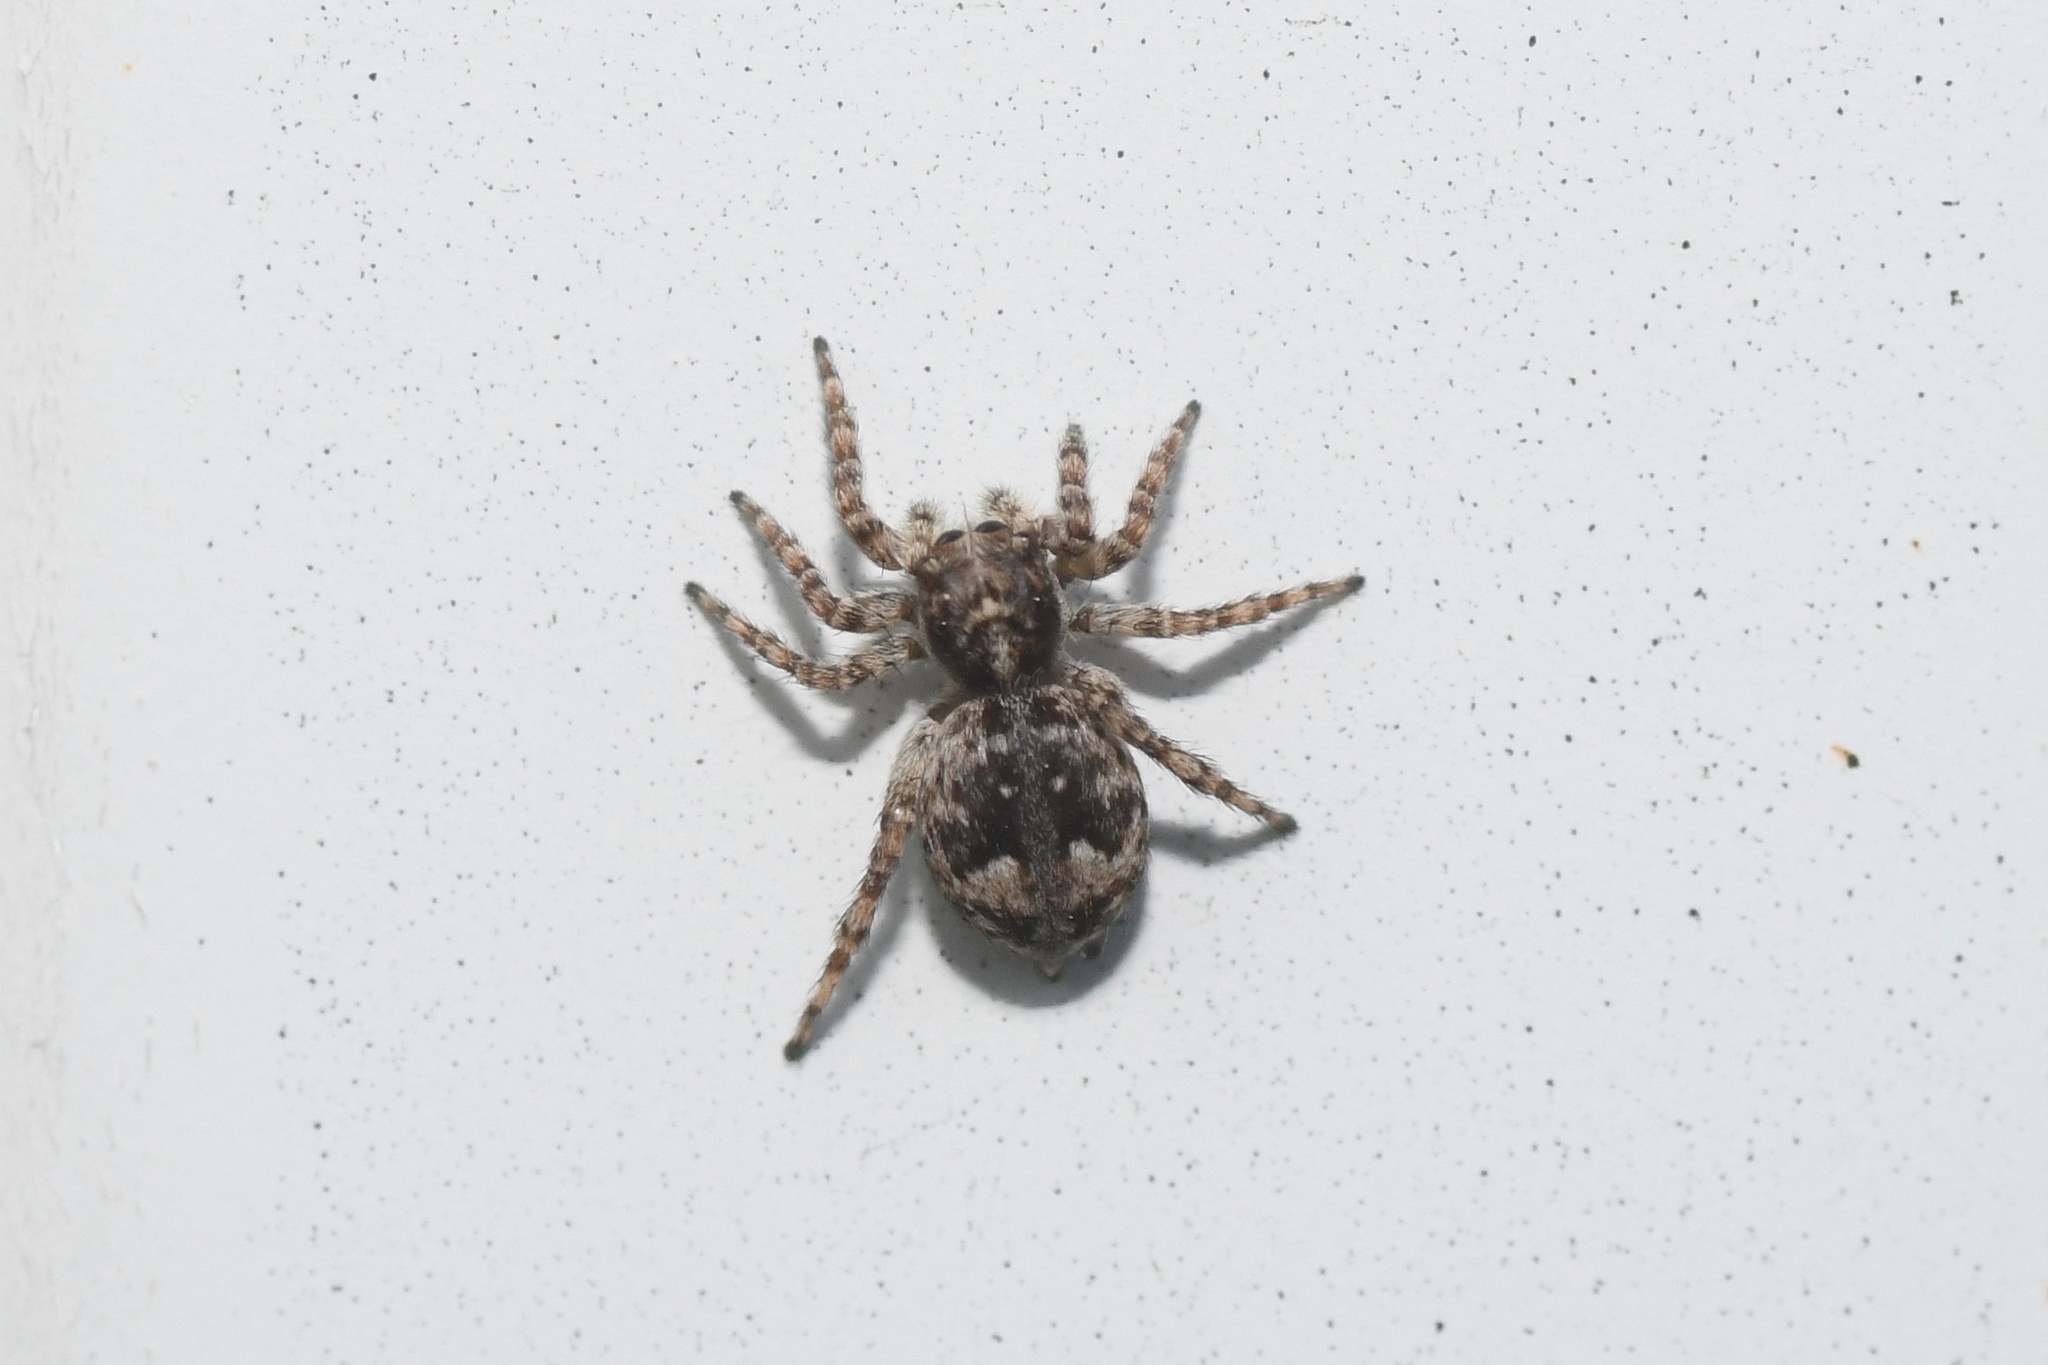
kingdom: Animalia
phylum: Arthropoda
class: Arachnida
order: Araneae
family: Salticidae
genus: Attulus
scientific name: Attulus fasciger
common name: Asiatic wall jumping spider
